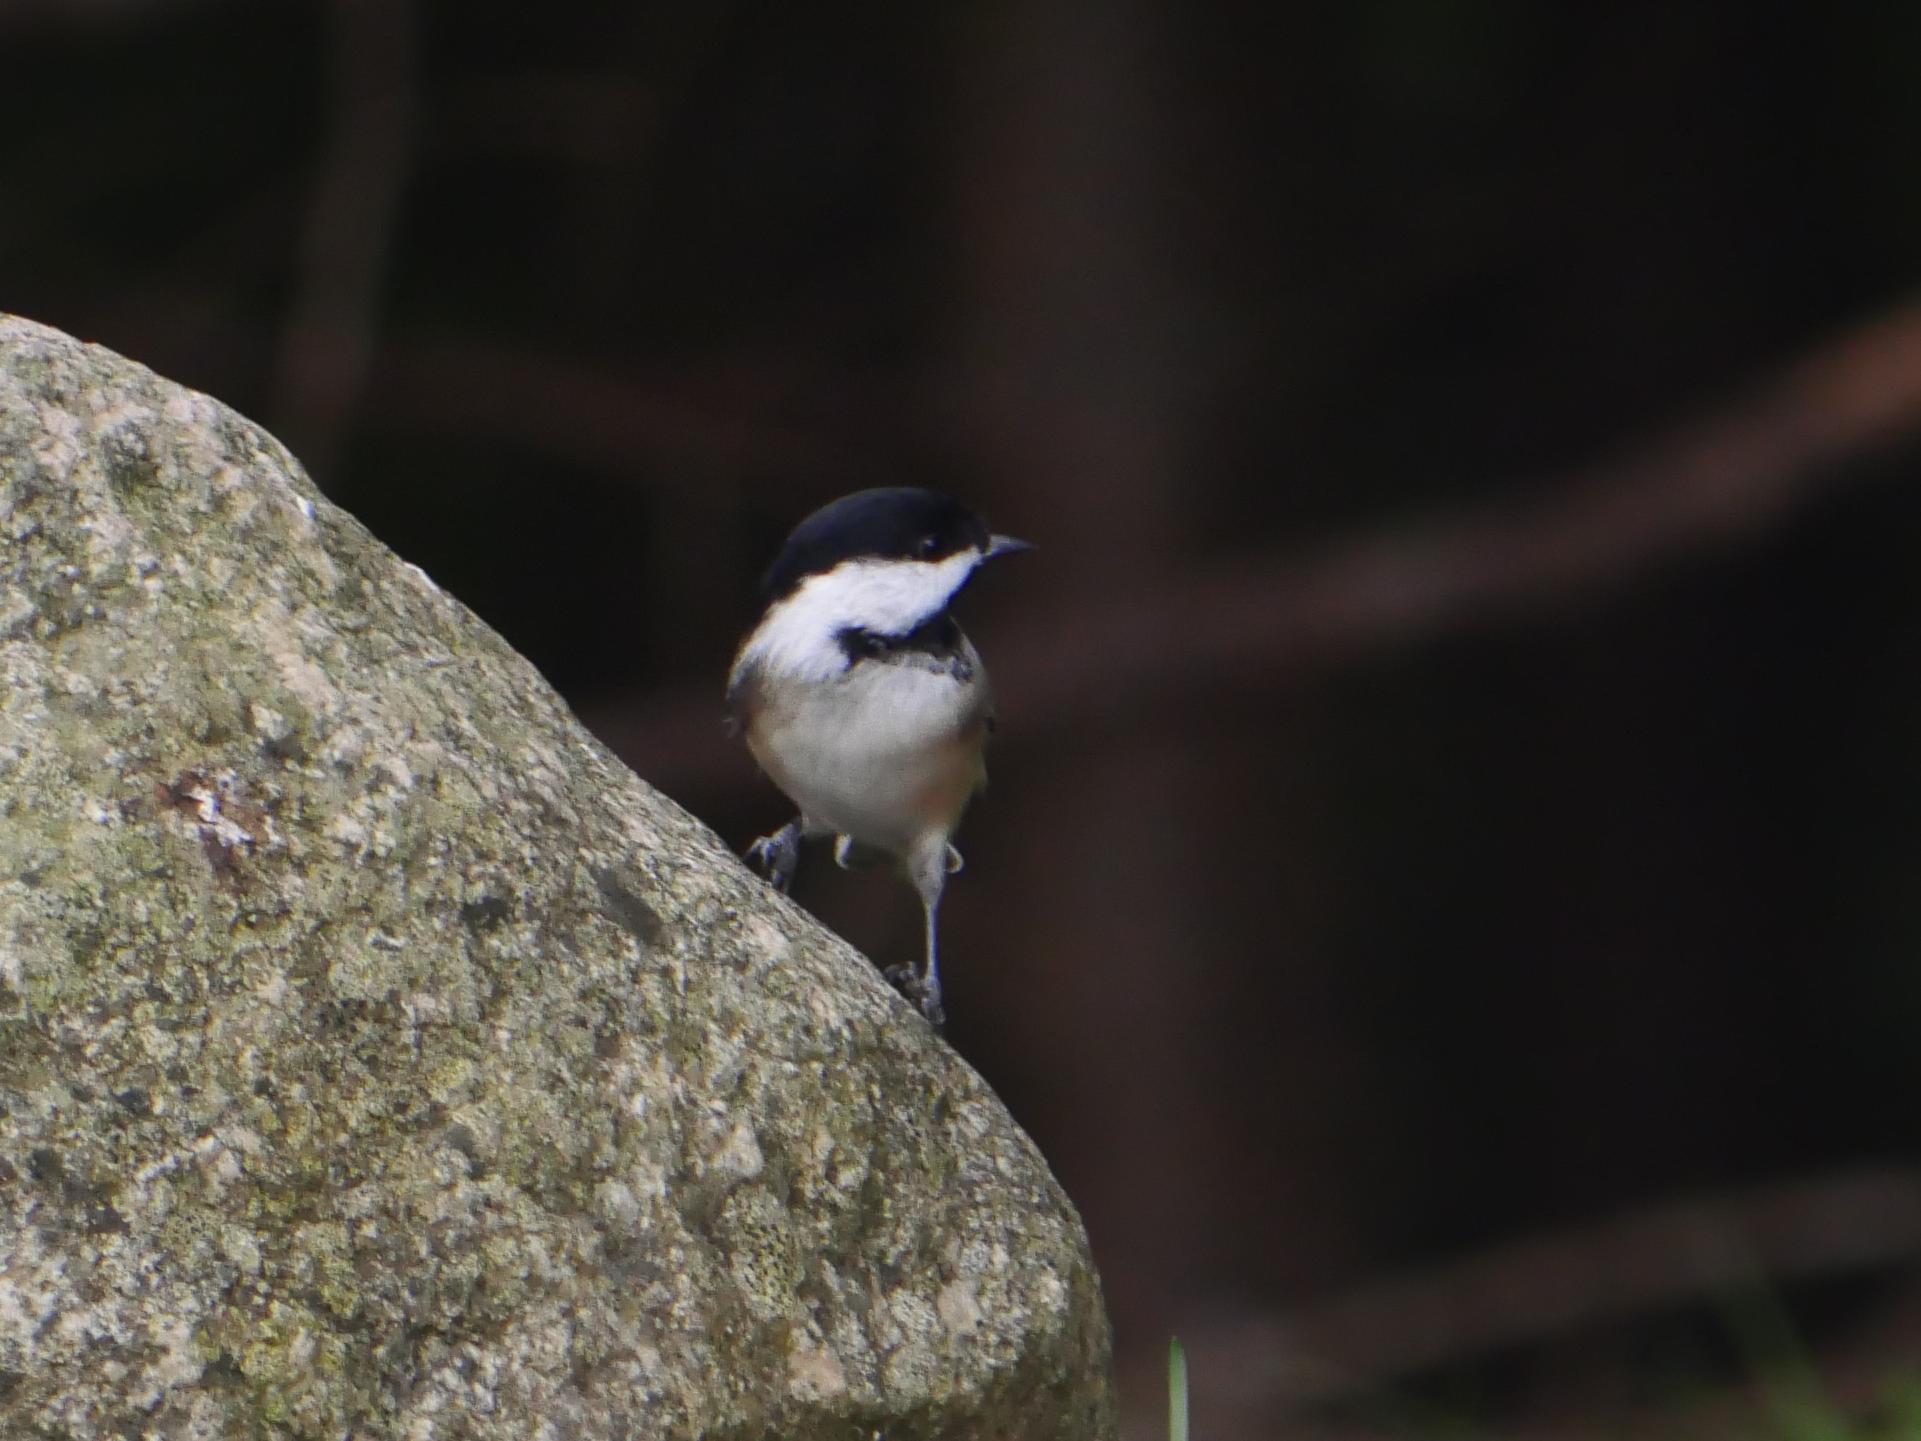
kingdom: Animalia
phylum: Chordata
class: Aves
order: Passeriformes
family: Paridae
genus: Poecile
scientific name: Poecile atricapillus
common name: Black-capped chickadee
